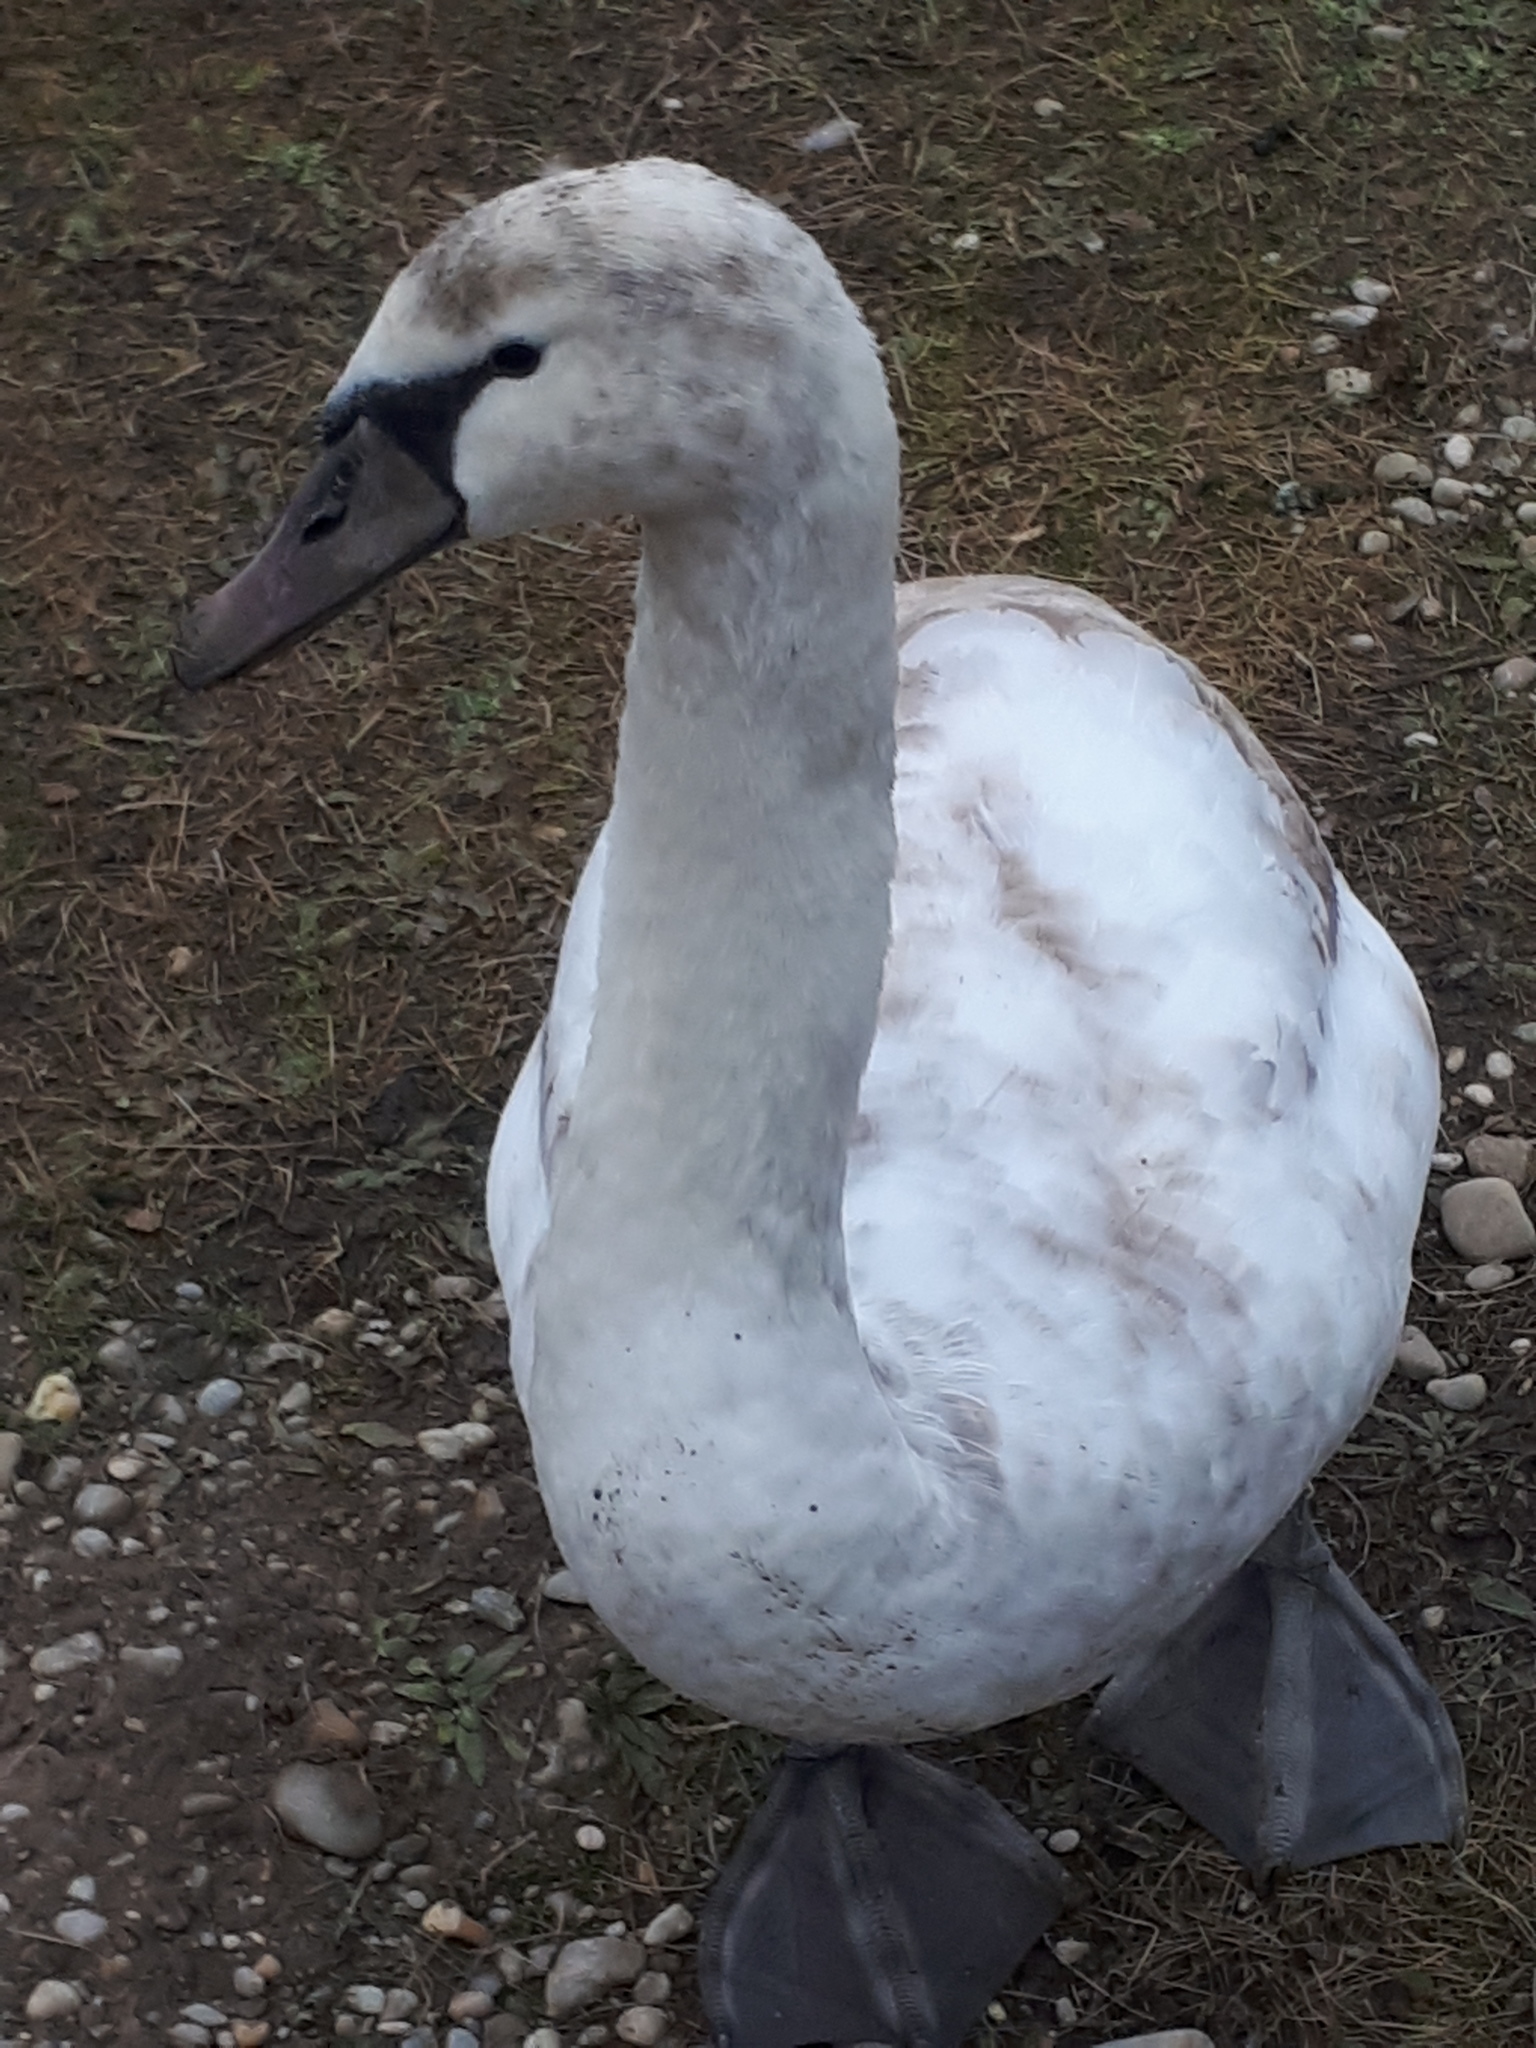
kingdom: Animalia
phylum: Chordata
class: Aves
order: Anseriformes
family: Anatidae
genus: Cygnus
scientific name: Cygnus olor
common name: Mute swan
